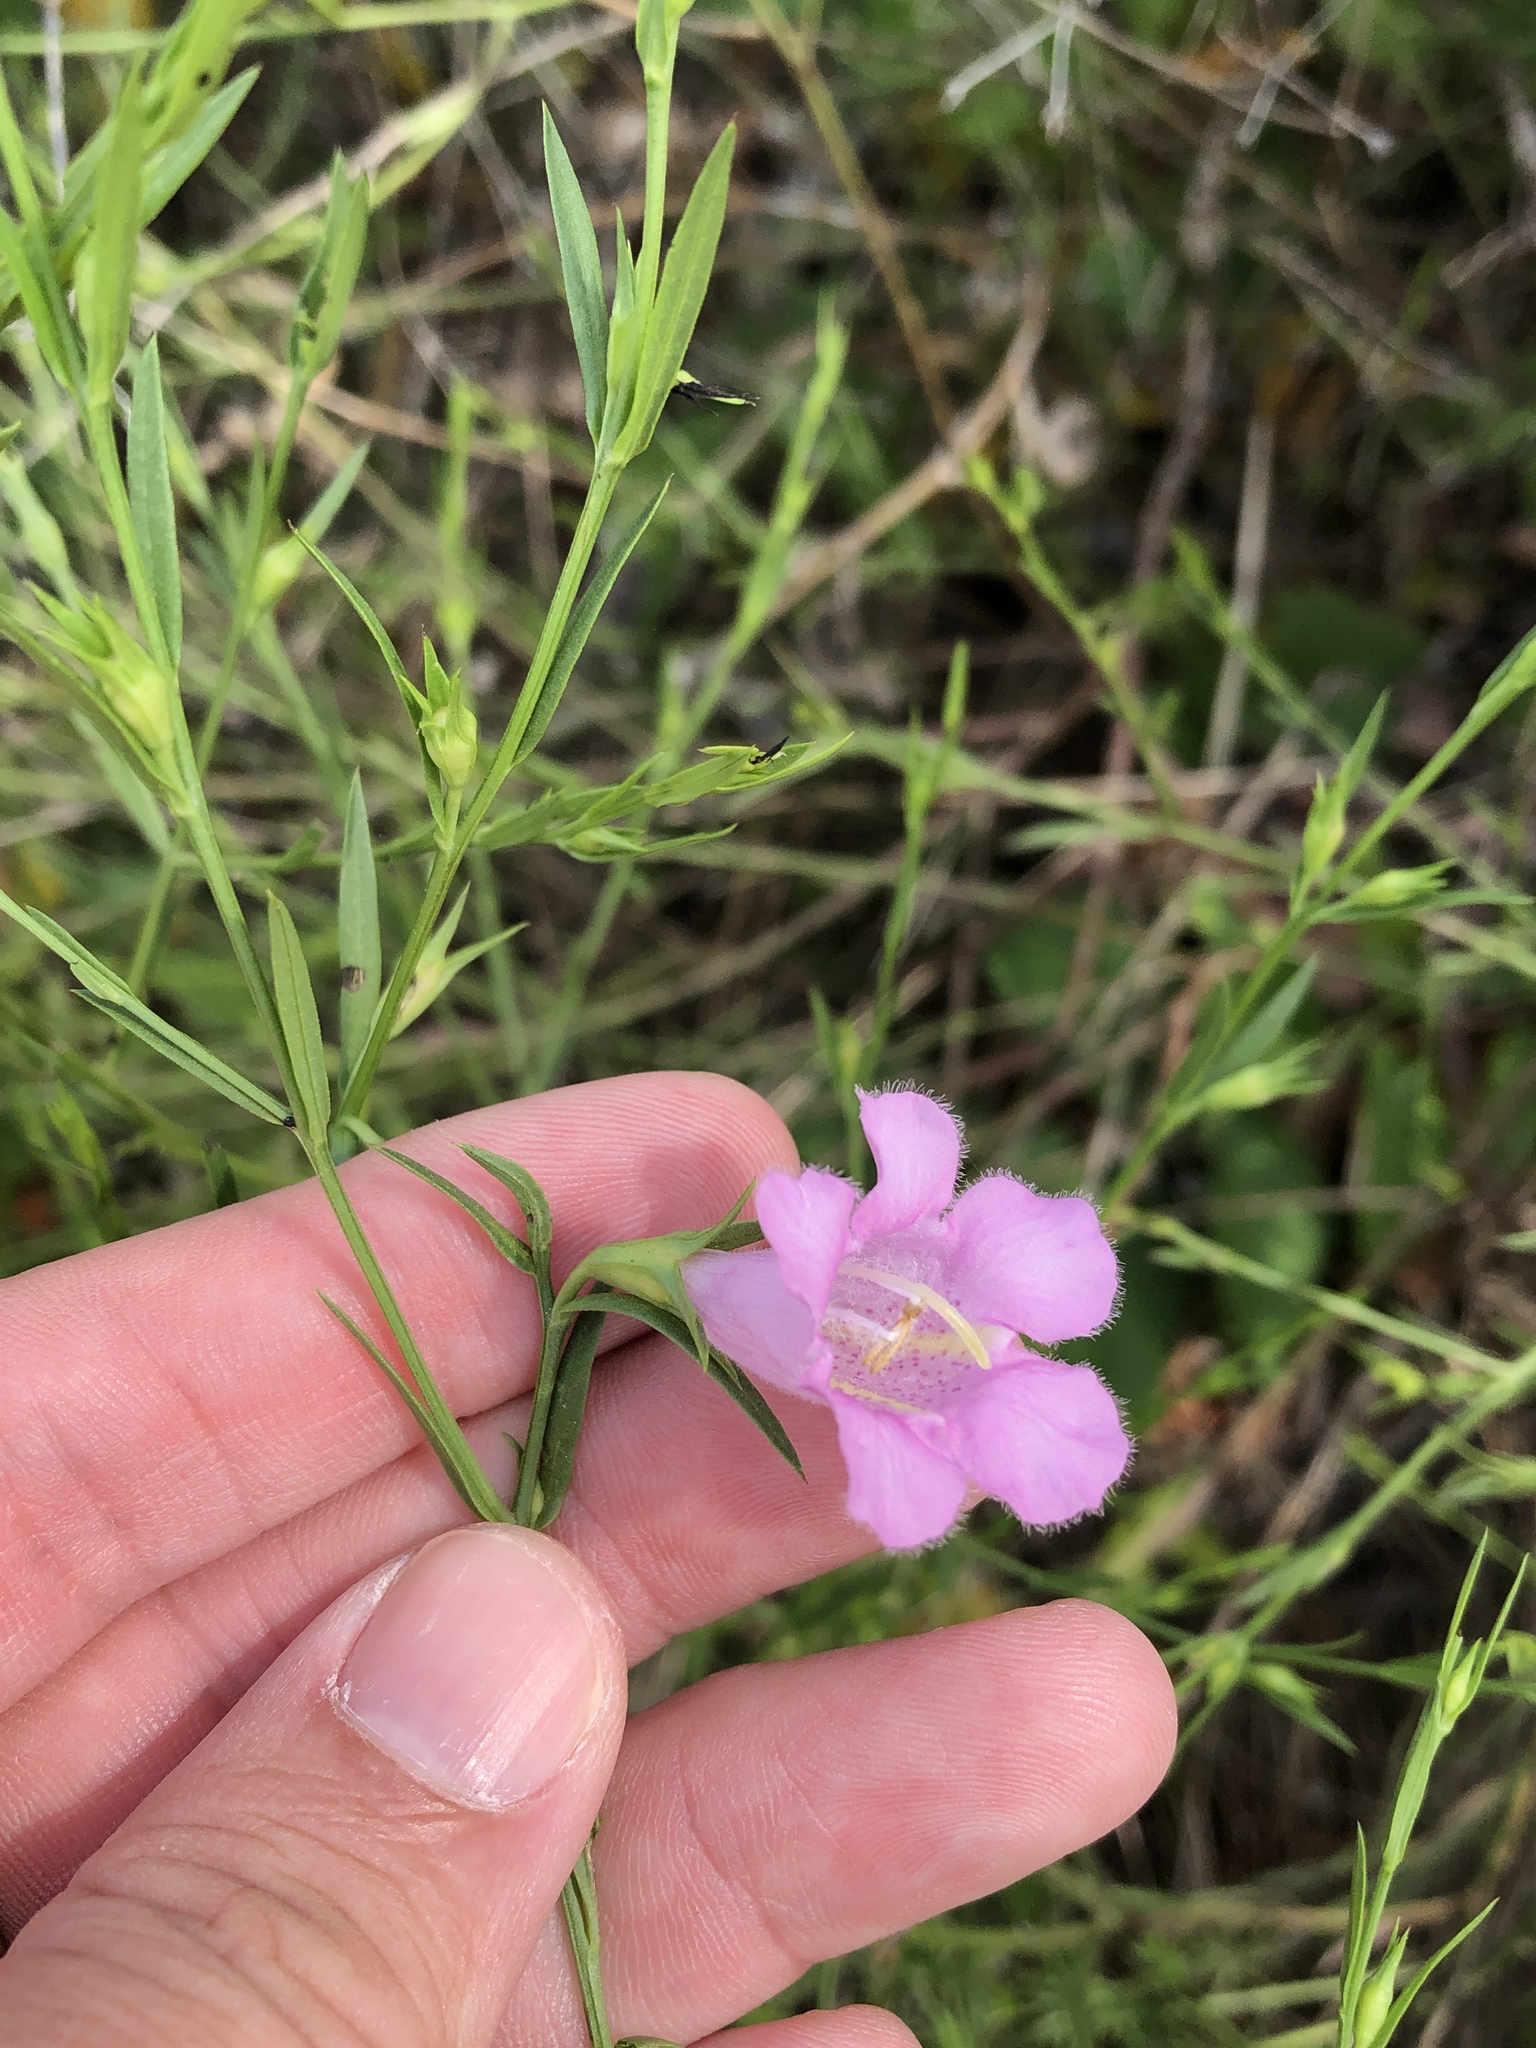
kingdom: Plantae
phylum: Tracheophyta
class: Magnoliopsida
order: Lamiales
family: Orobanchaceae
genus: Agalinis
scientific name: Agalinis heterophylla
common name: Prairie agalinis
